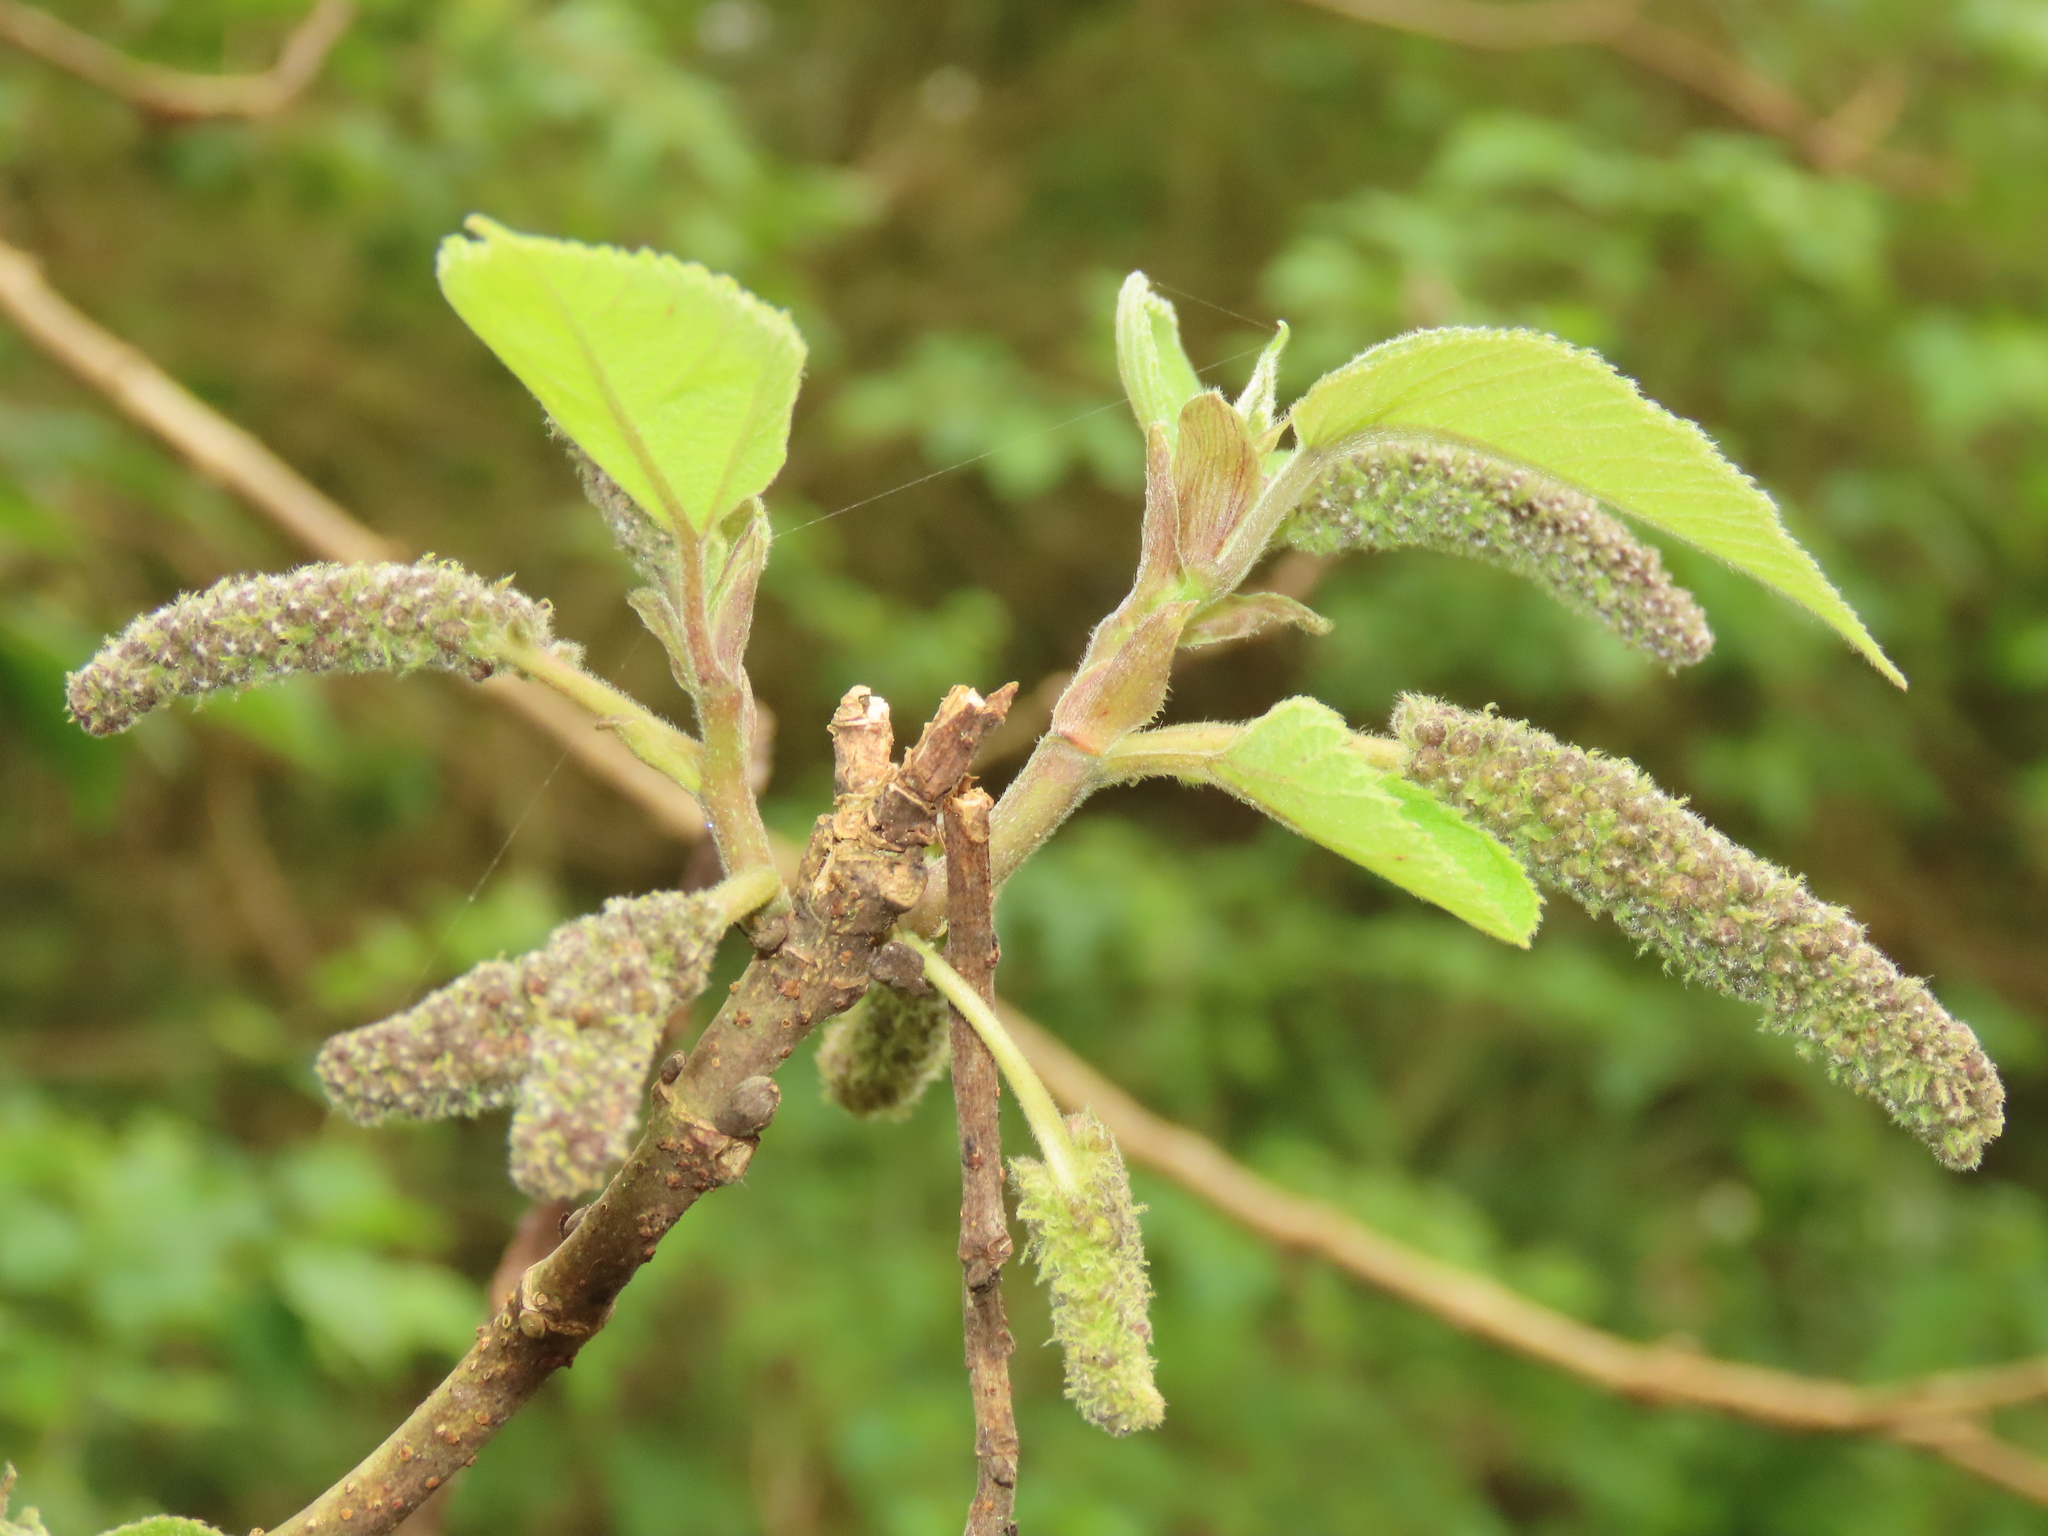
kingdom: Plantae
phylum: Tracheophyta
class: Magnoliopsida
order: Rosales
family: Moraceae
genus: Broussonetia
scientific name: Broussonetia papyrifera
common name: Paper mulberry
